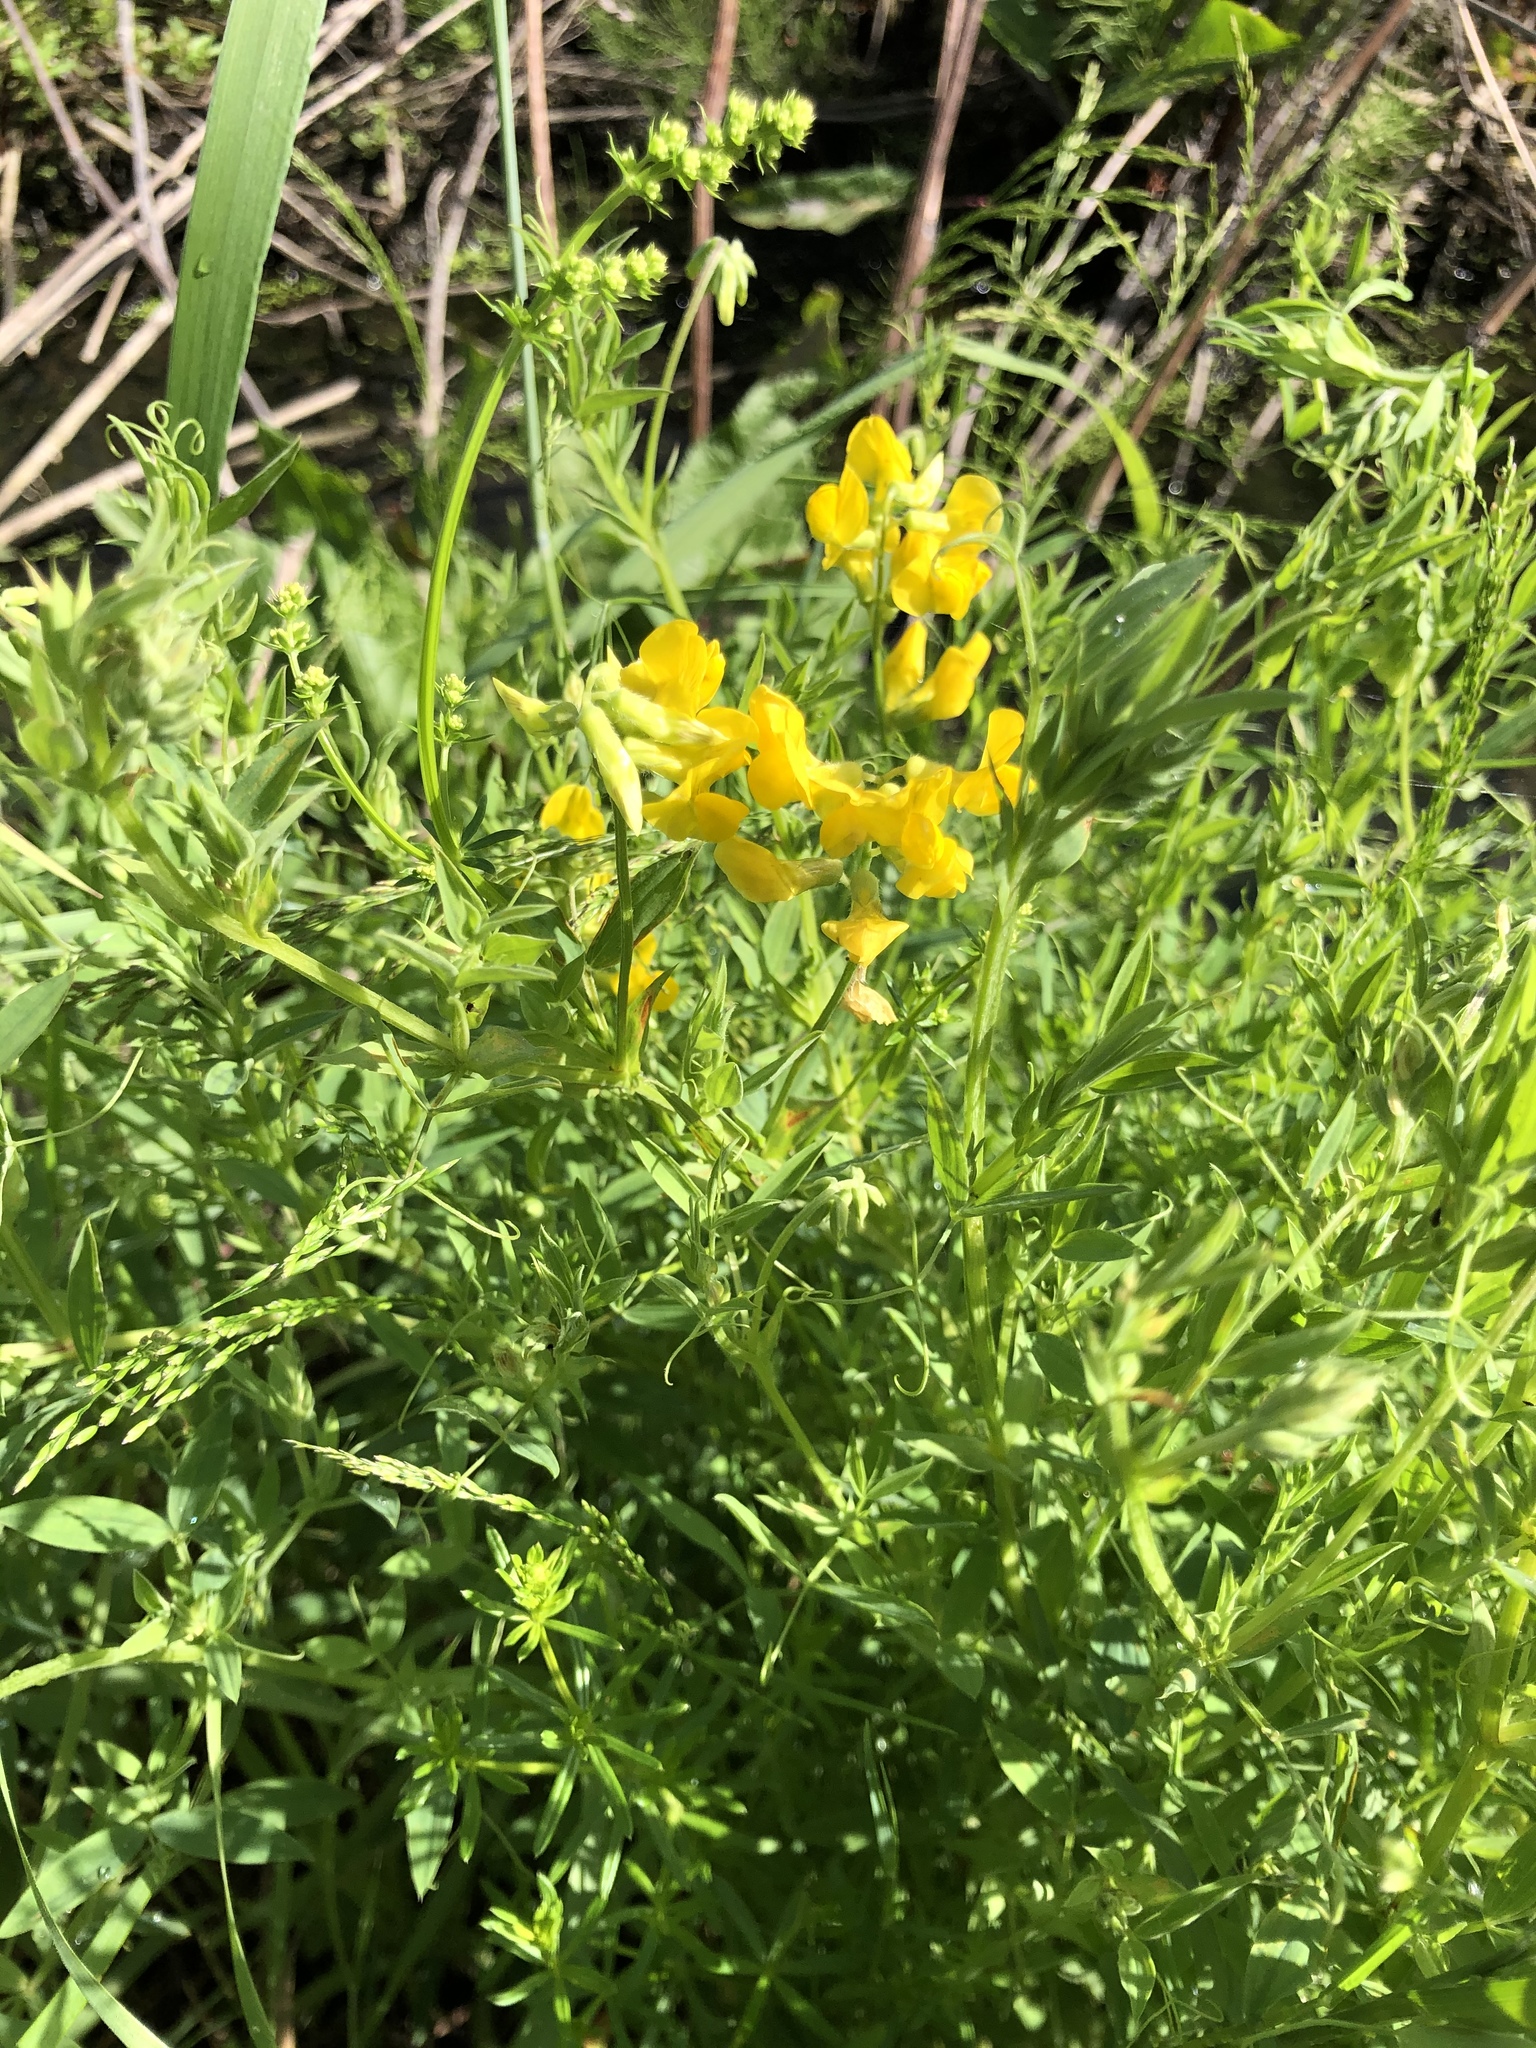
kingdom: Plantae
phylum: Tracheophyta
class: Magnoliopsida
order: Fabales
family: Fabaceae
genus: Lathyrus
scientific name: Lathyrus pratensis
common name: Meadow vetchling
